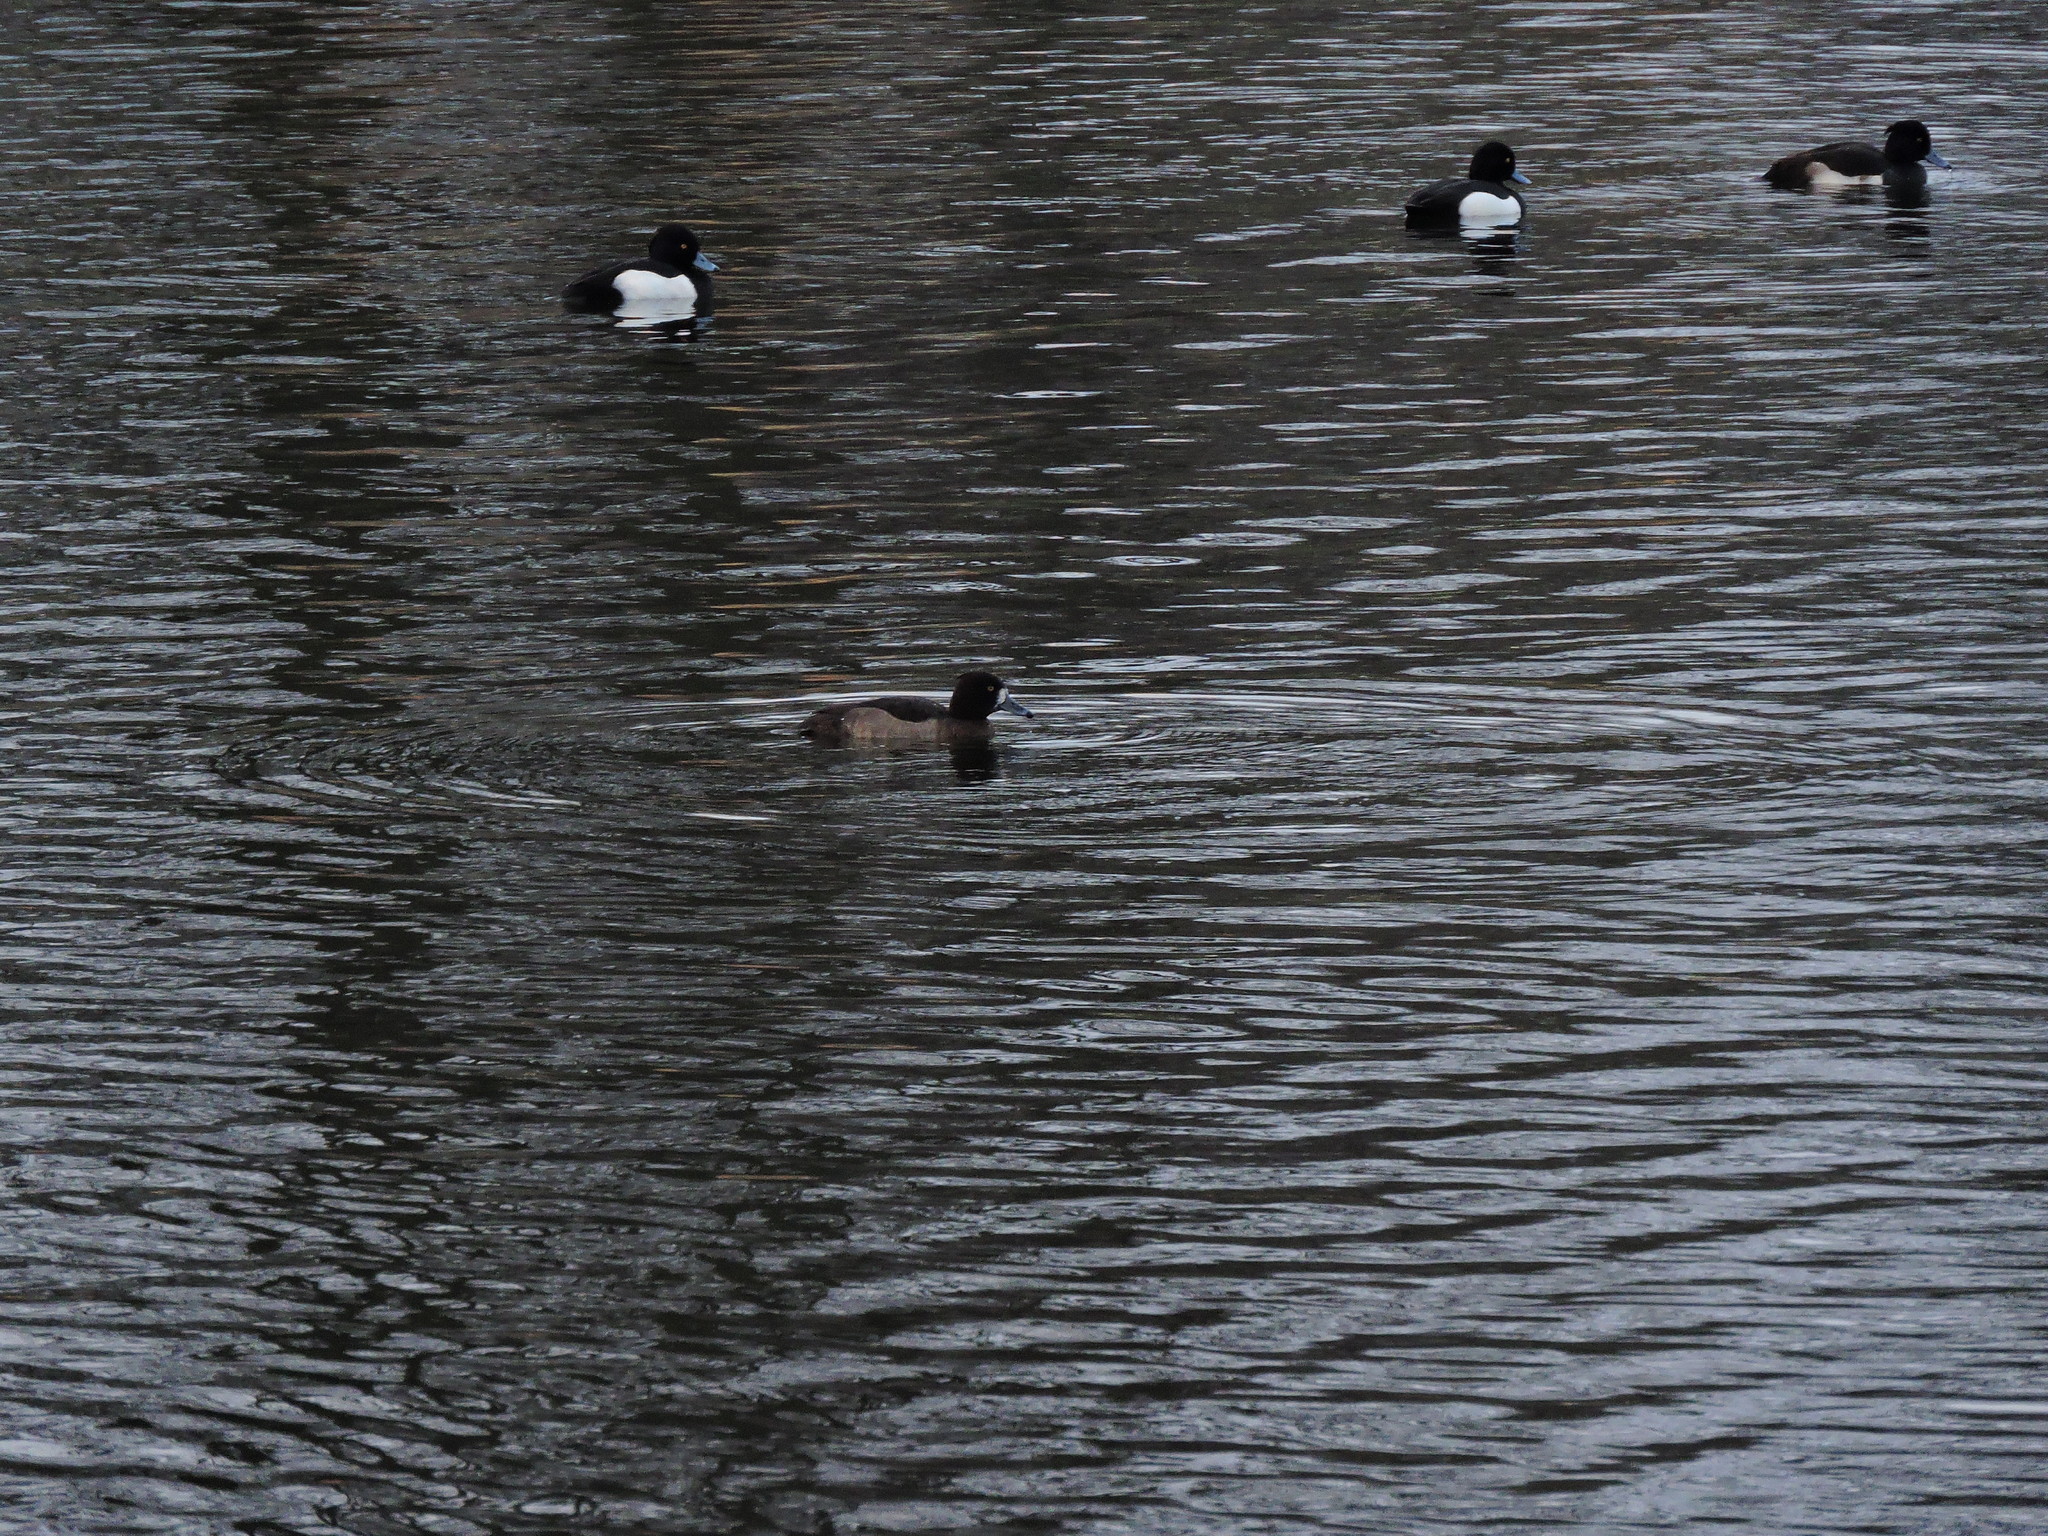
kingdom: Animalia
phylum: Chordata
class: Aves
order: Anseriformes
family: Anatidae
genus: Aythya
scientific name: Aythya fuligula
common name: Tufted duck
